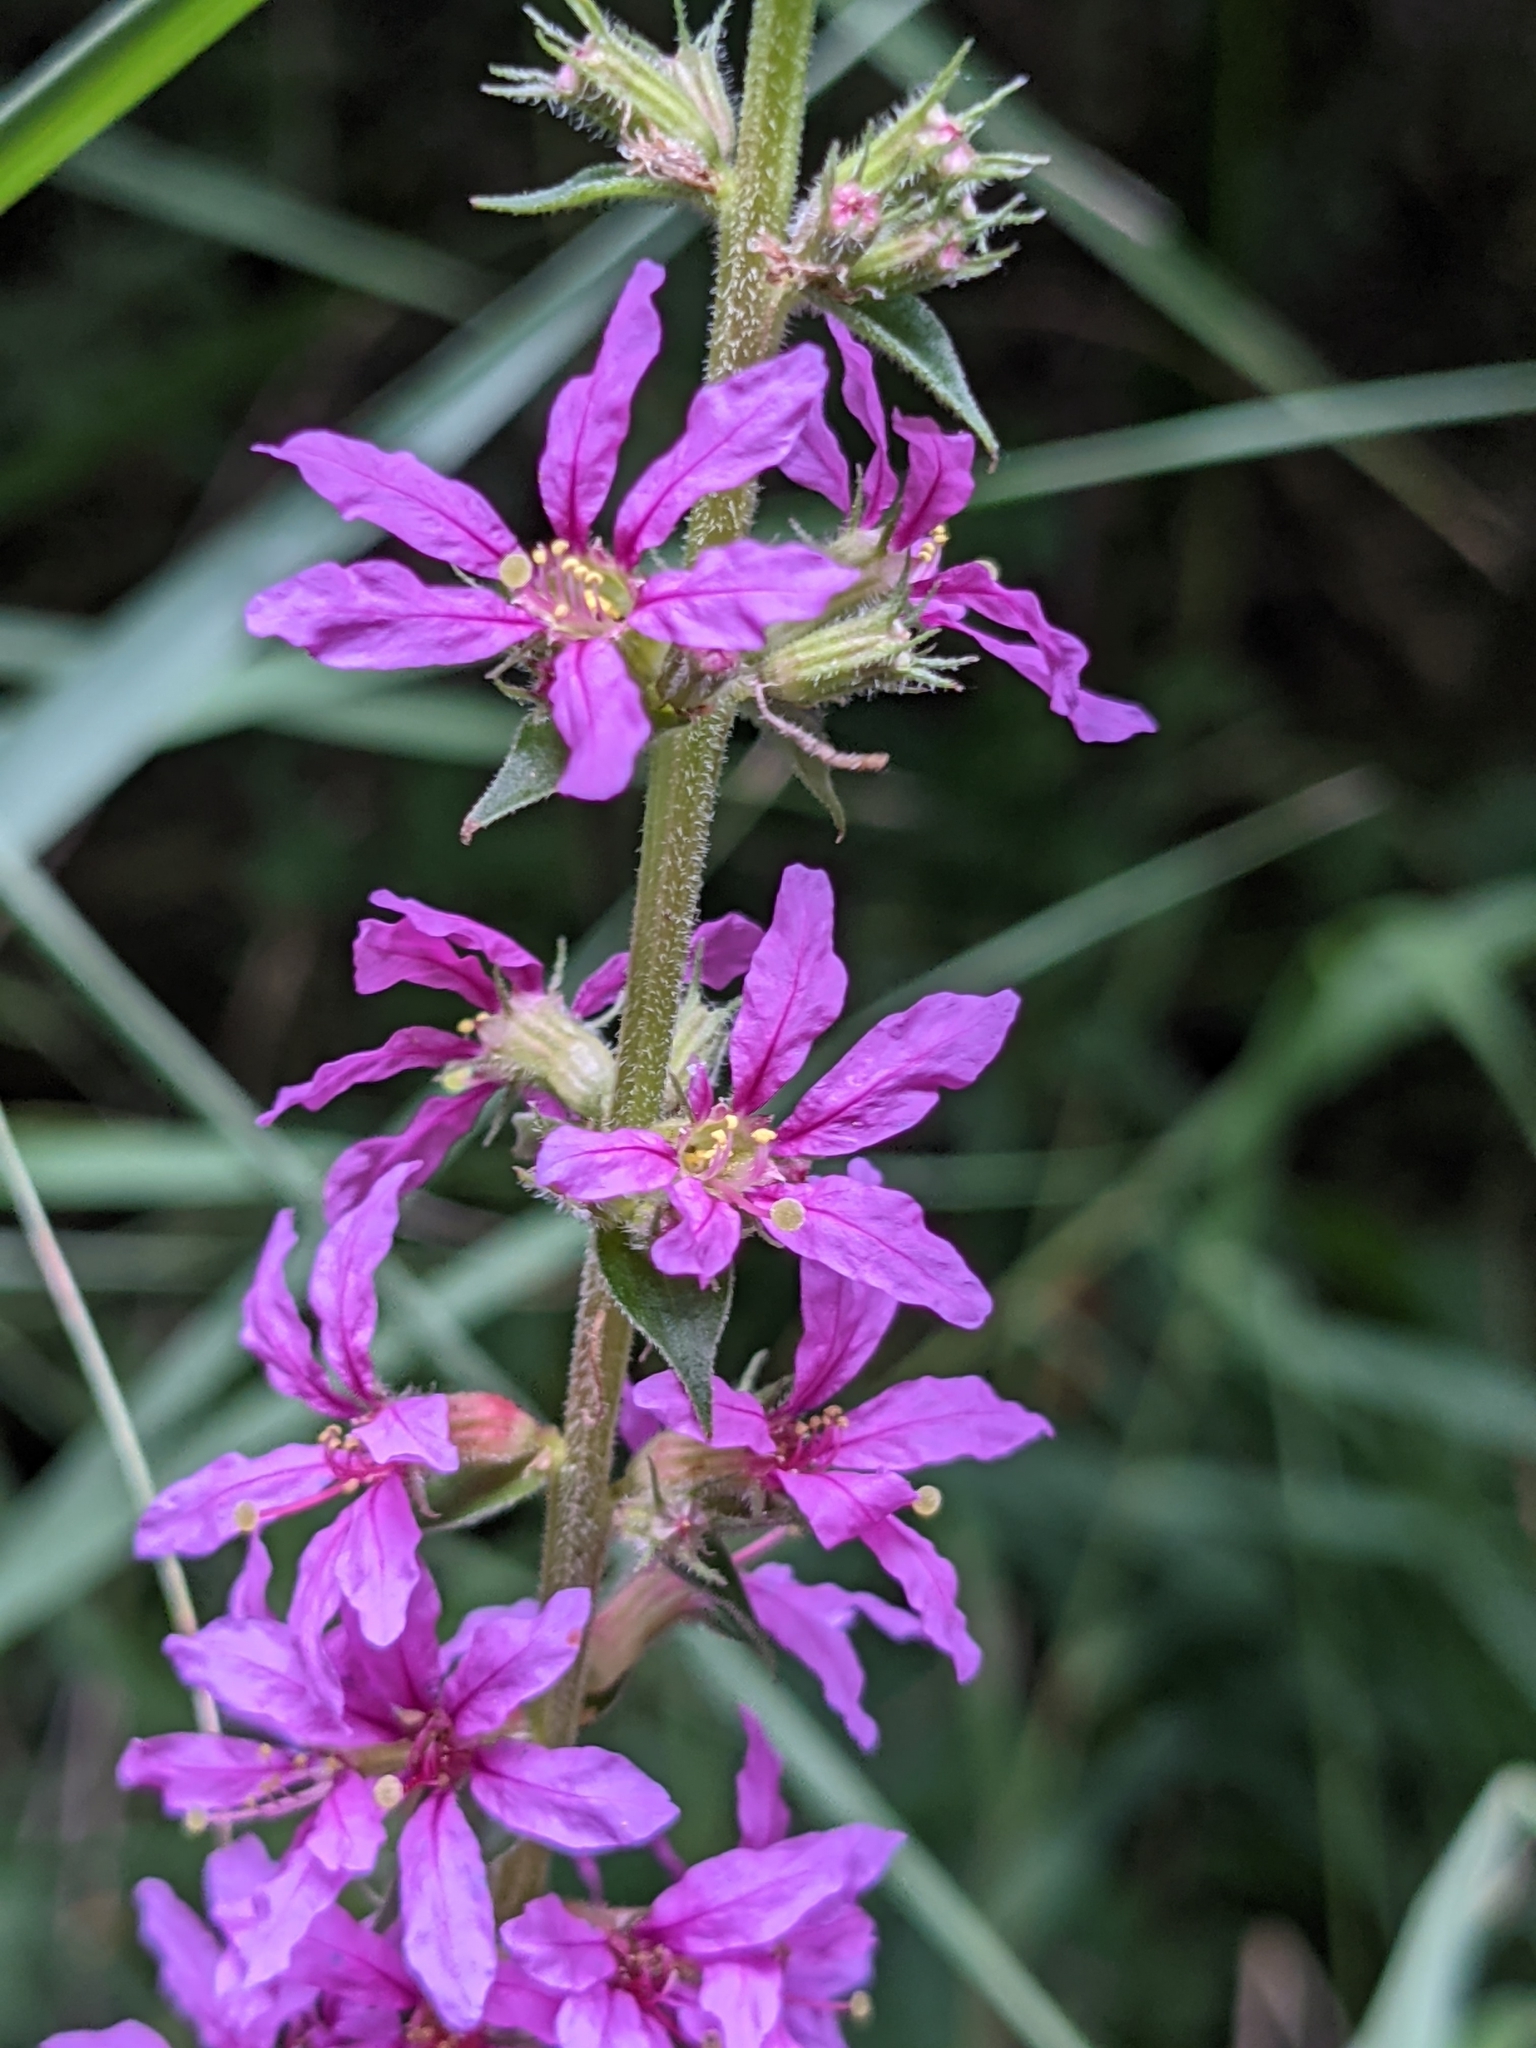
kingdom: Plantae
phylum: Tracheophyta
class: Magnoliopsida
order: Myrtales
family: Lythraceae
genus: Lythrum
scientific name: Lythrum salicaria
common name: Purple loosestrife
